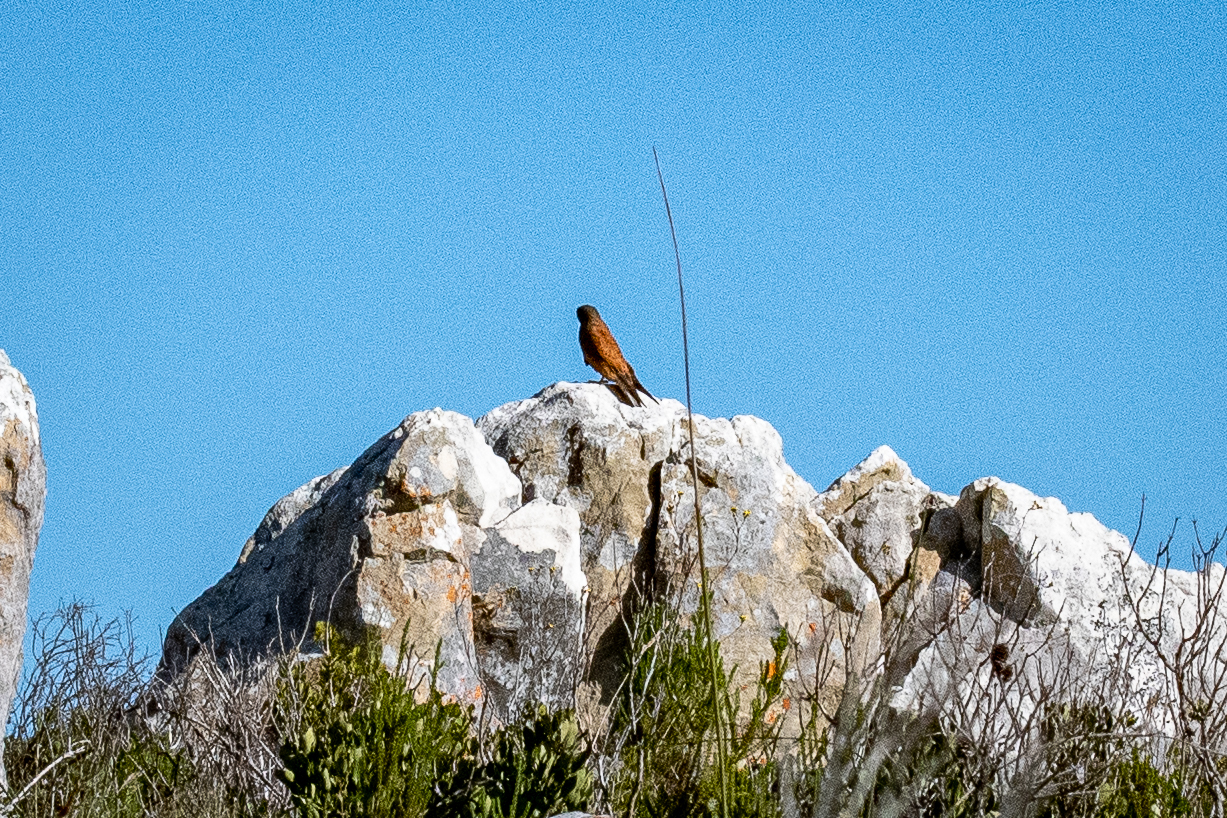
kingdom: Animalia
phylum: Chordata
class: Aves
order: Falconiformes
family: Falconidae
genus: Falco
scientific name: Falco rupicolus
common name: Rock kestrel
